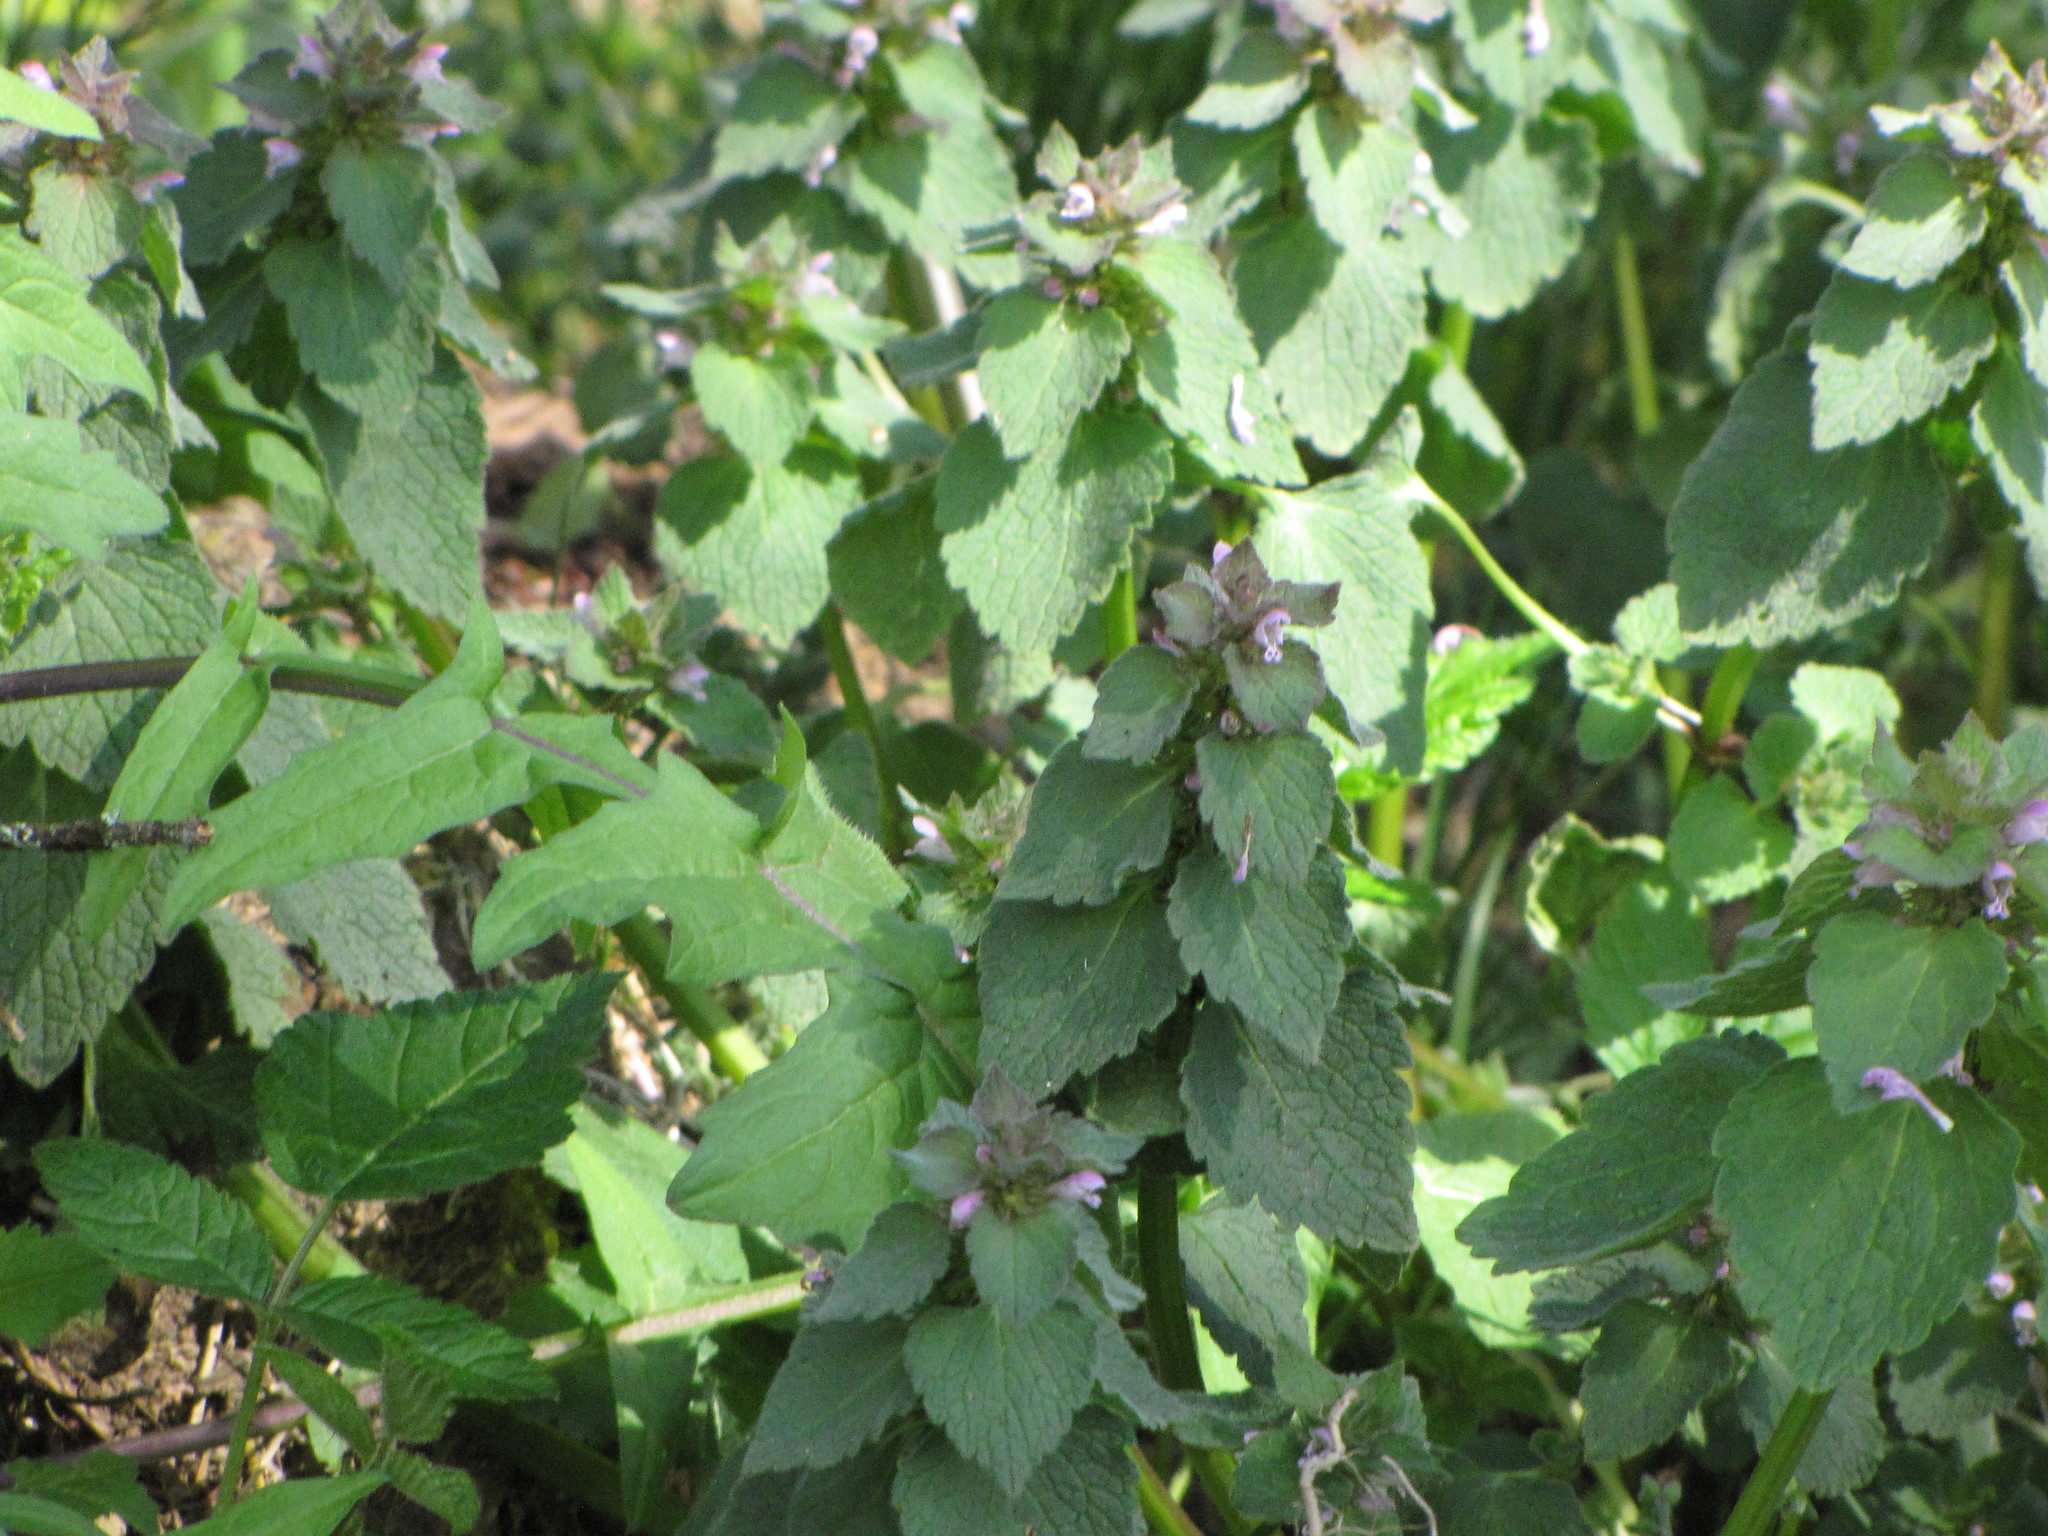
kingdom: Plantae
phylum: Tracheophyta
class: Magnoliopsida
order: Lamiales
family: Lamiaceae
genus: Lamium
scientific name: Lamium purpureum
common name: Red dead-nettle
